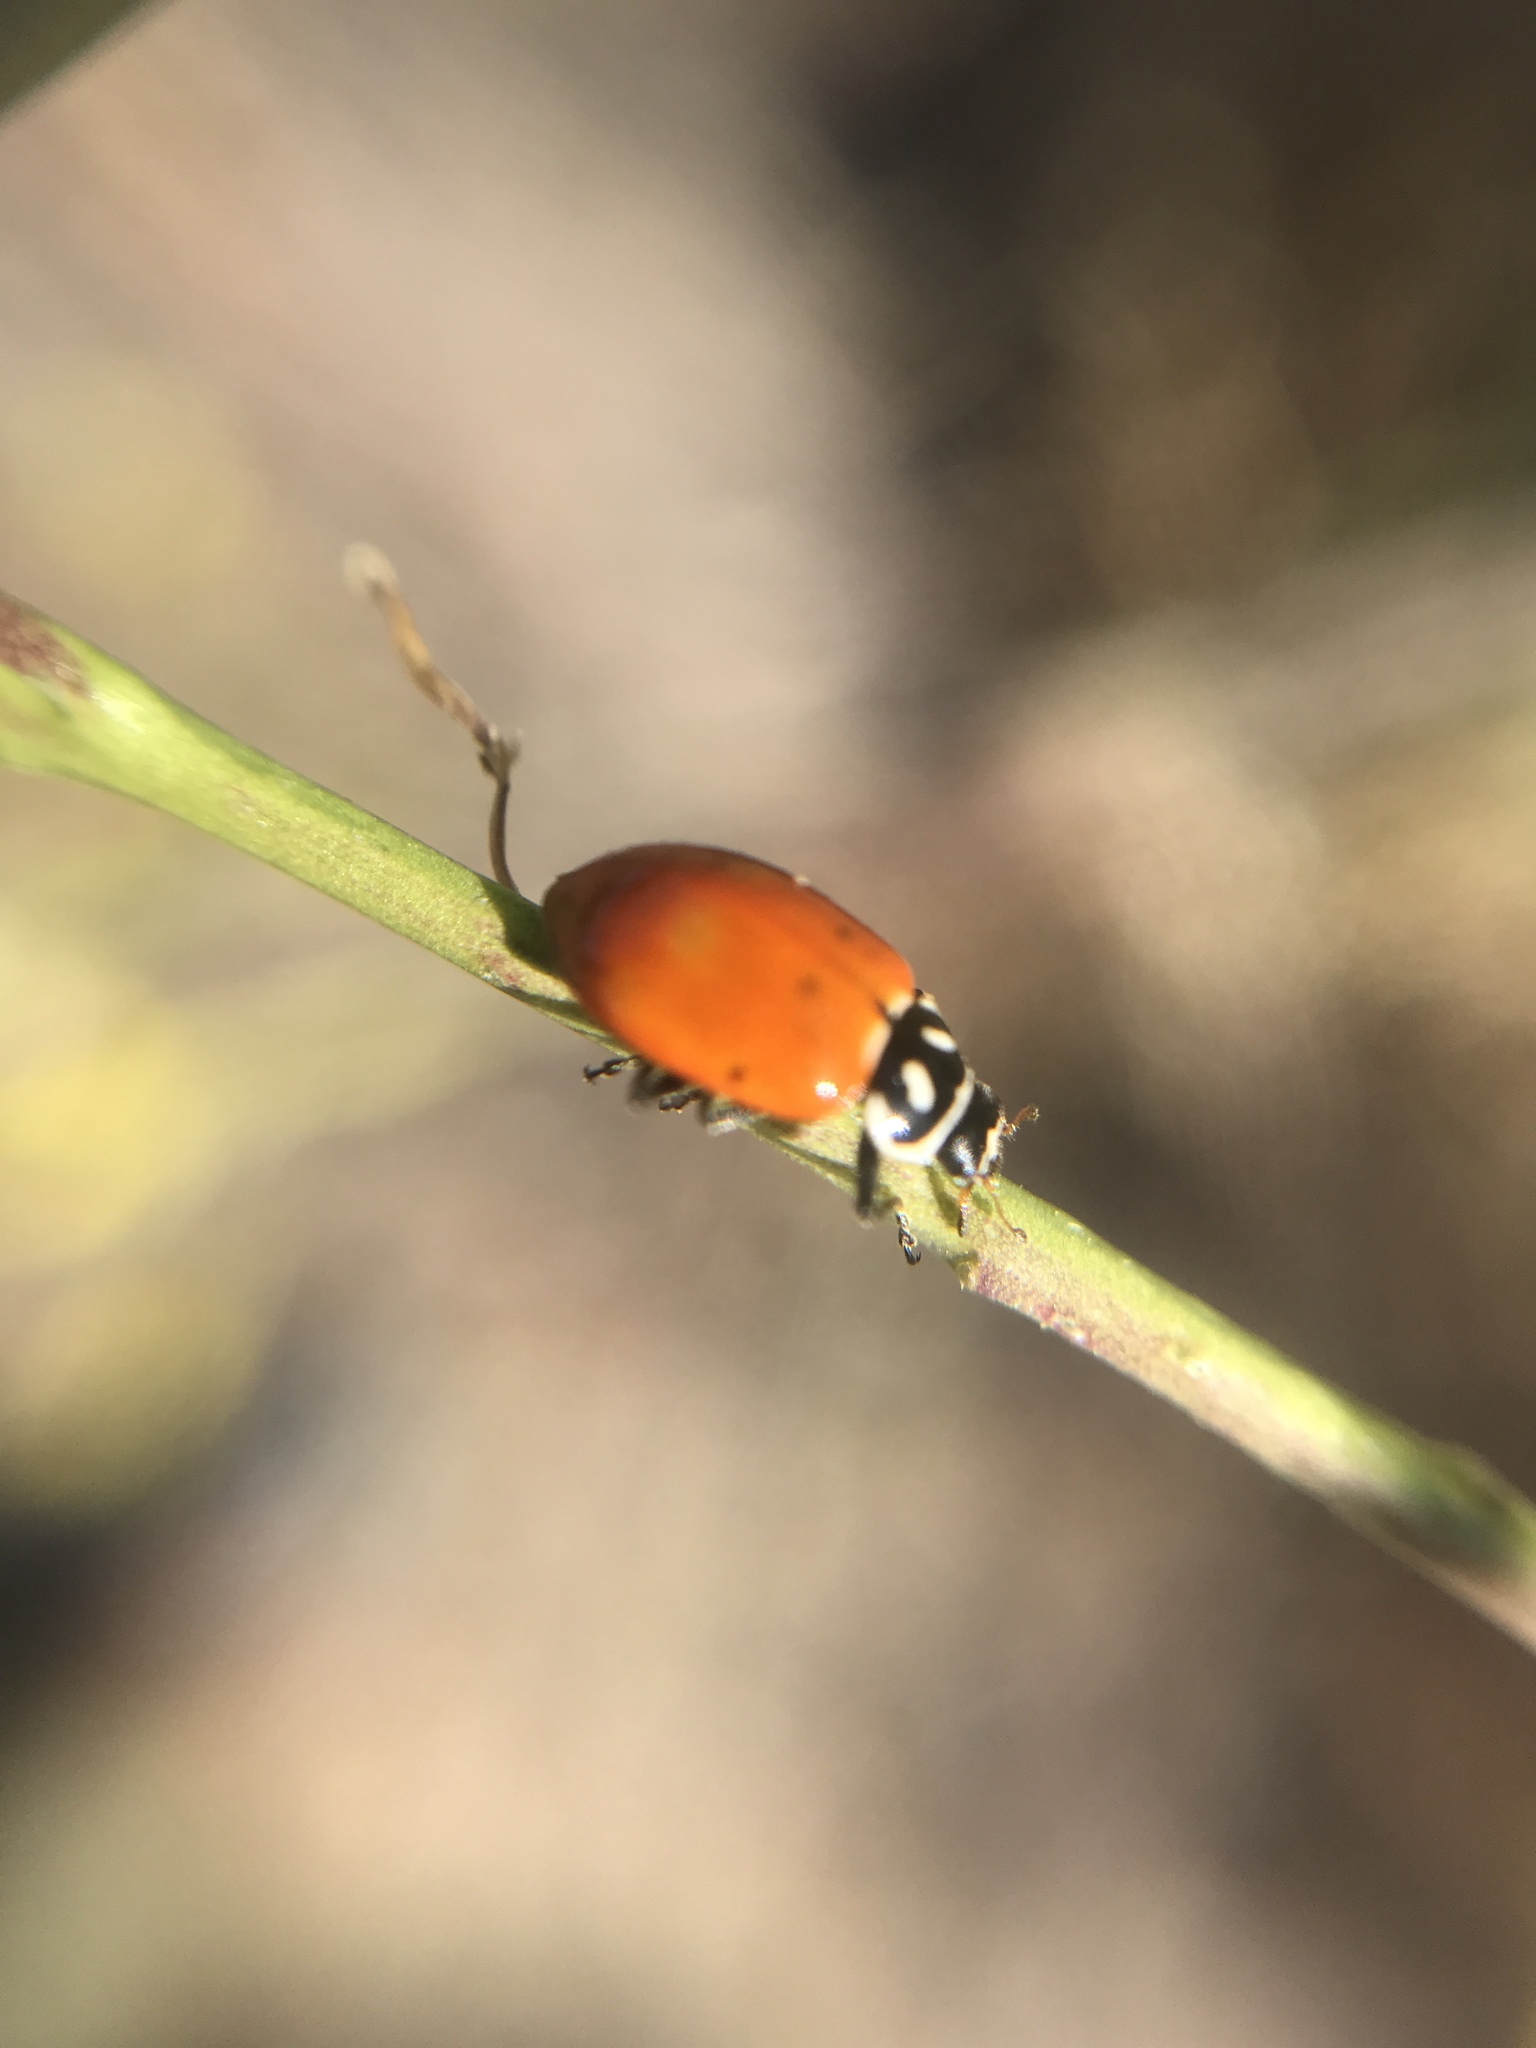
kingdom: Animalia
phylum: Arthropoda
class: Insecta
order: Coleoptera
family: Coccinellidae
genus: Hippodamia
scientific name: Hippodamia convergens
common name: Convergent lady beetle
